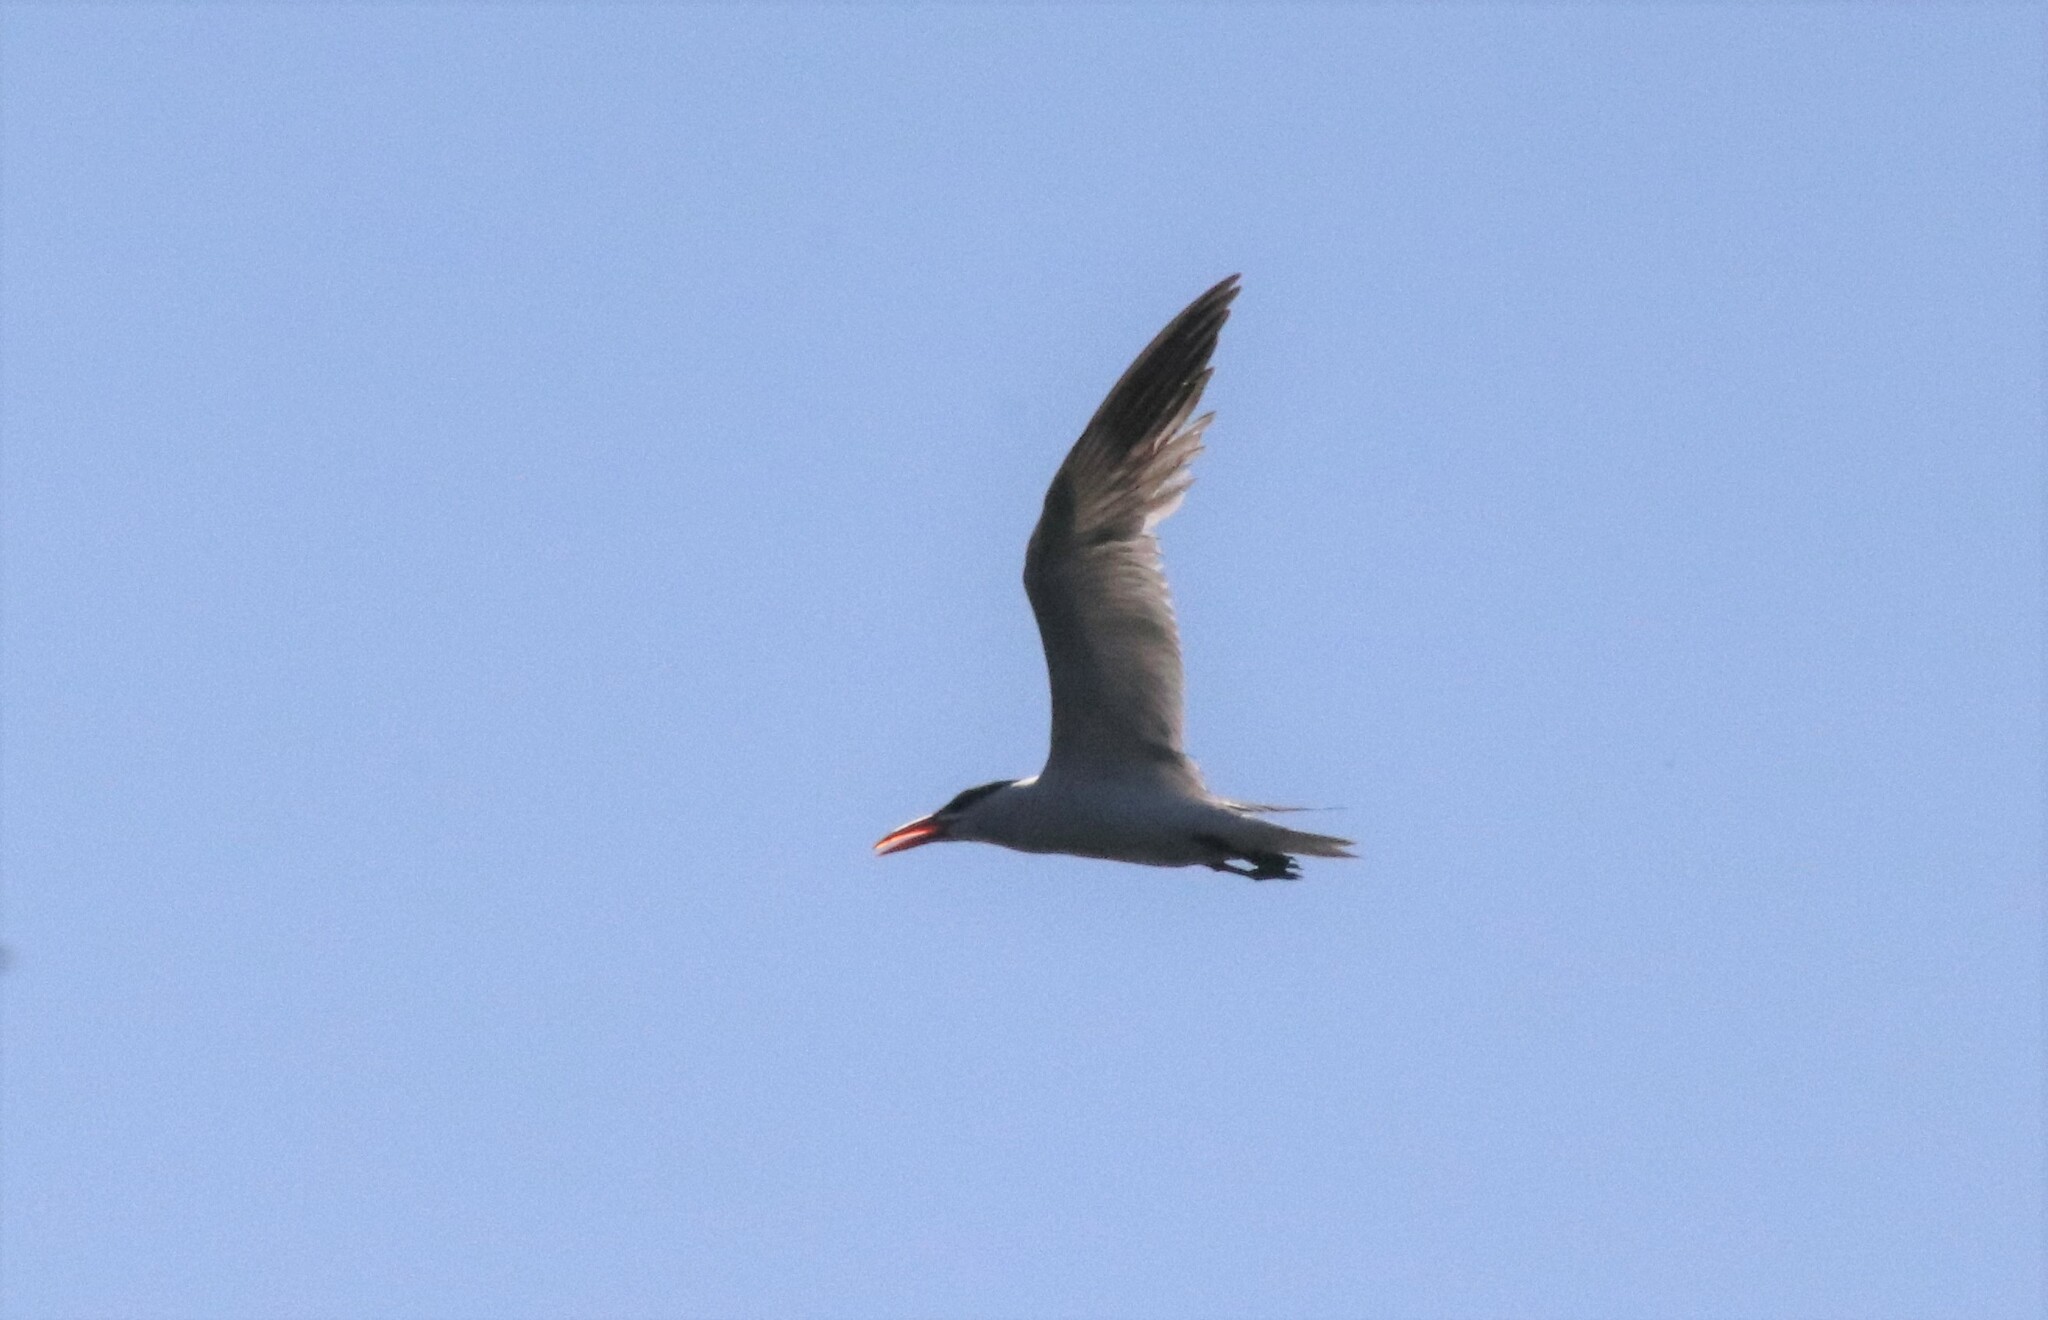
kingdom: Animalia
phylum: Chordata
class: Aves
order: Charadriiformes
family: Laridae
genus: Hydroprogne
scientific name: Hydroprogne caspia
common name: Caspian tern
